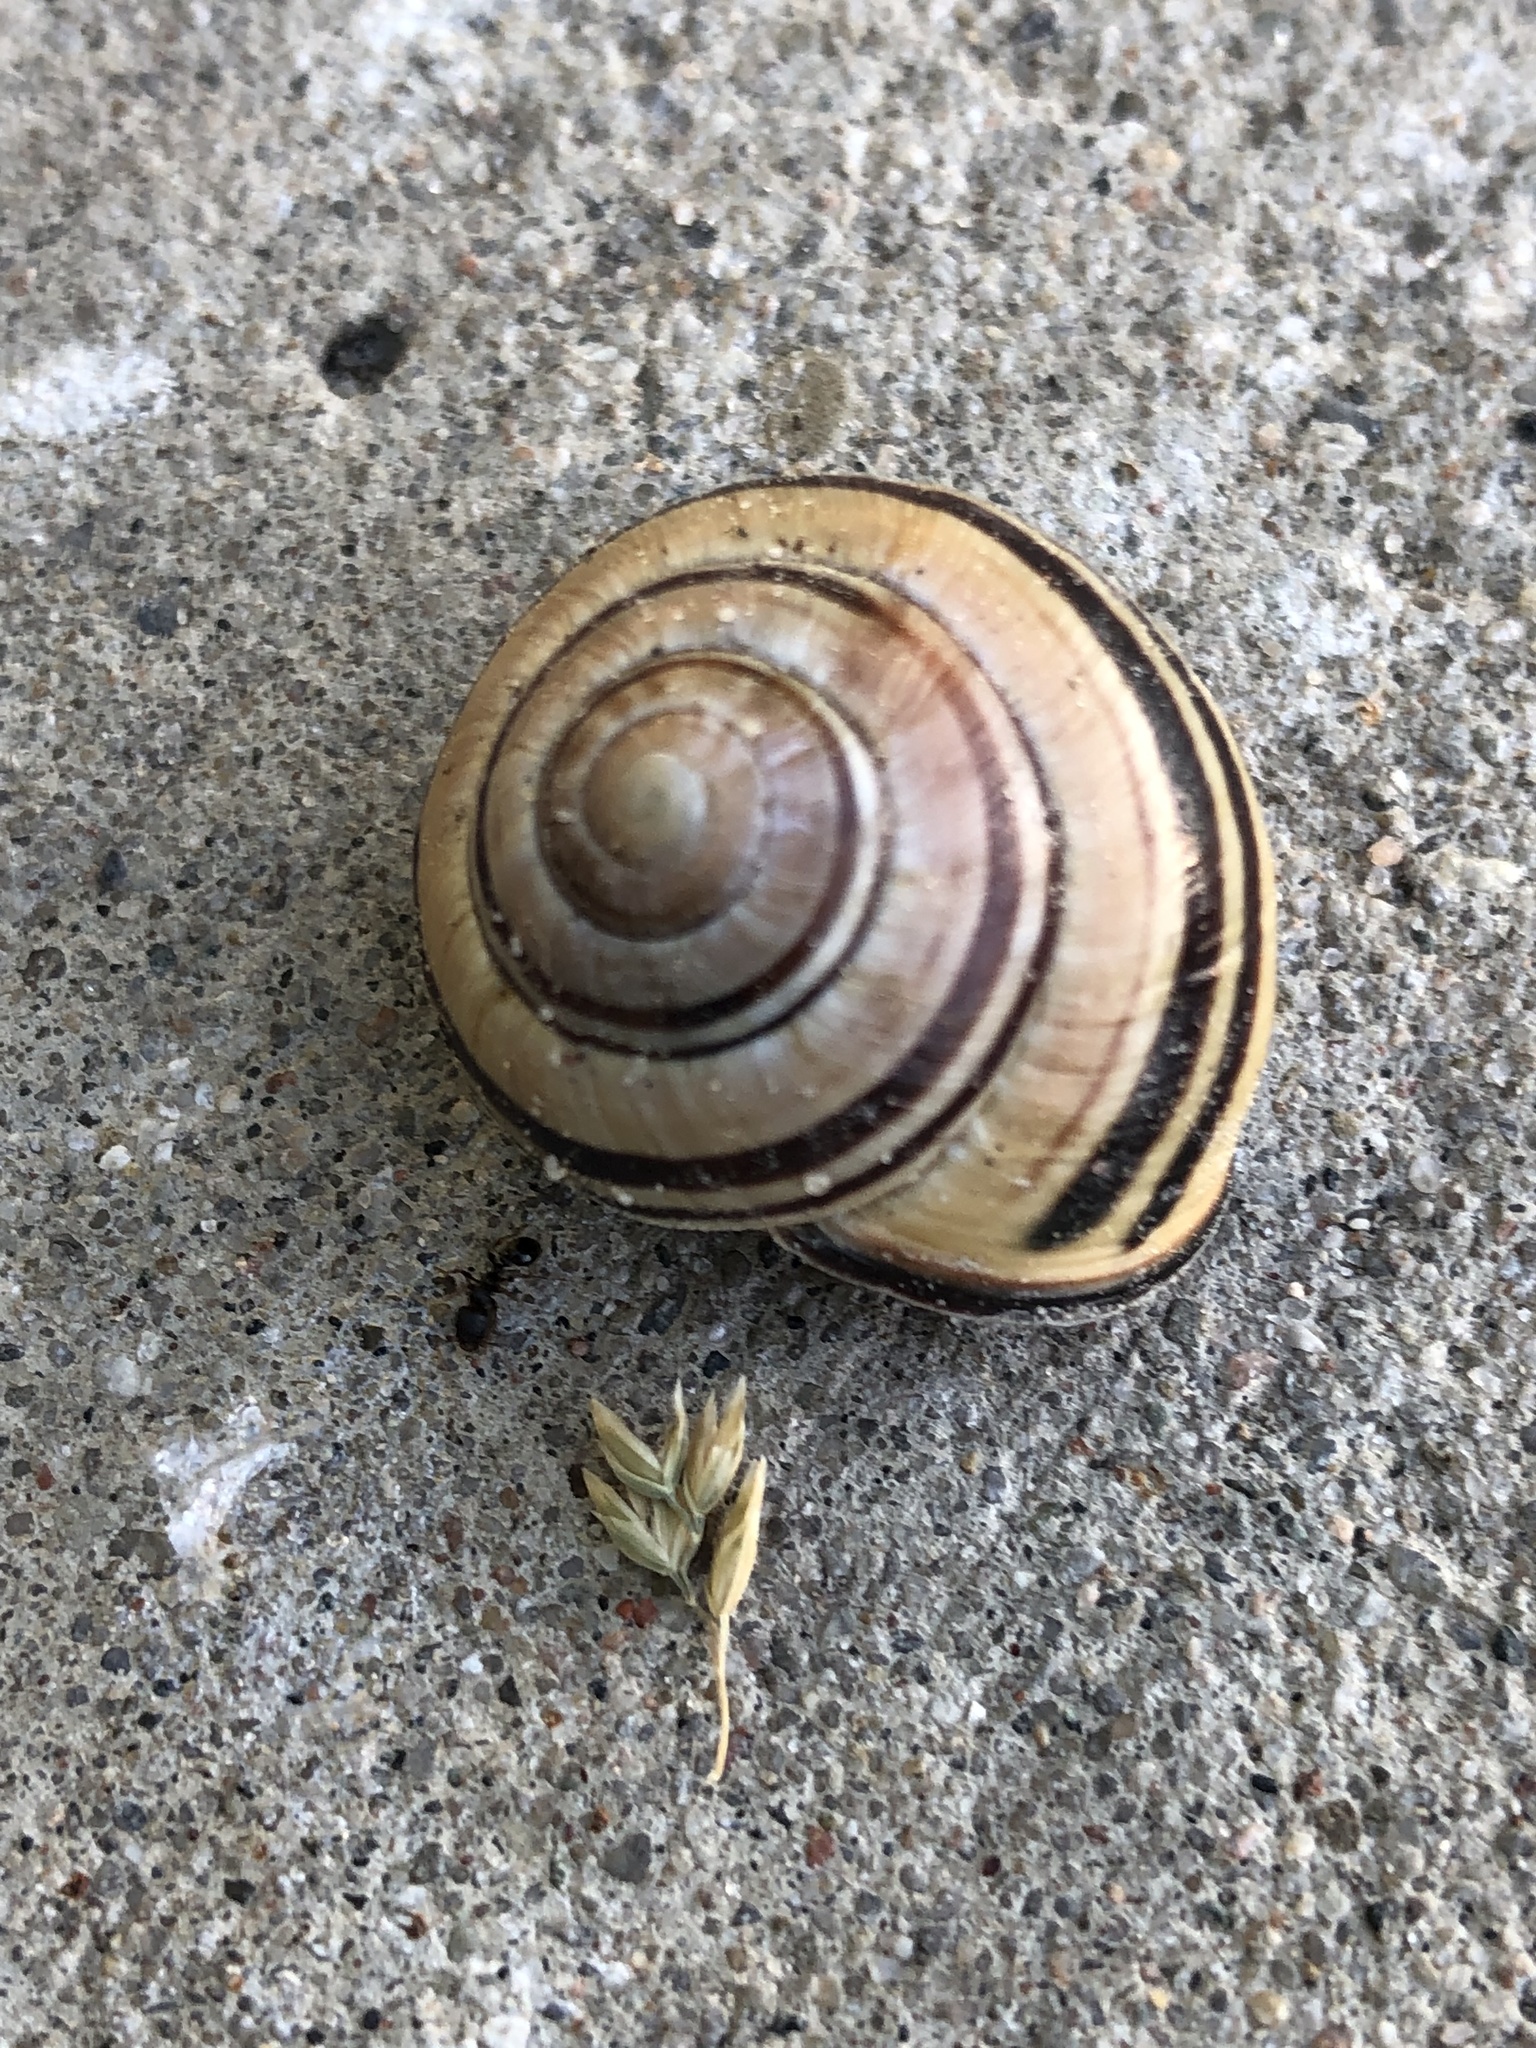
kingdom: Animalia
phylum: Mollusca
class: Gastropoda
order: Stylommatophora
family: Helicidae
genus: Cepaea
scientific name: Cepaea nemoralis
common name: Grovesnail
